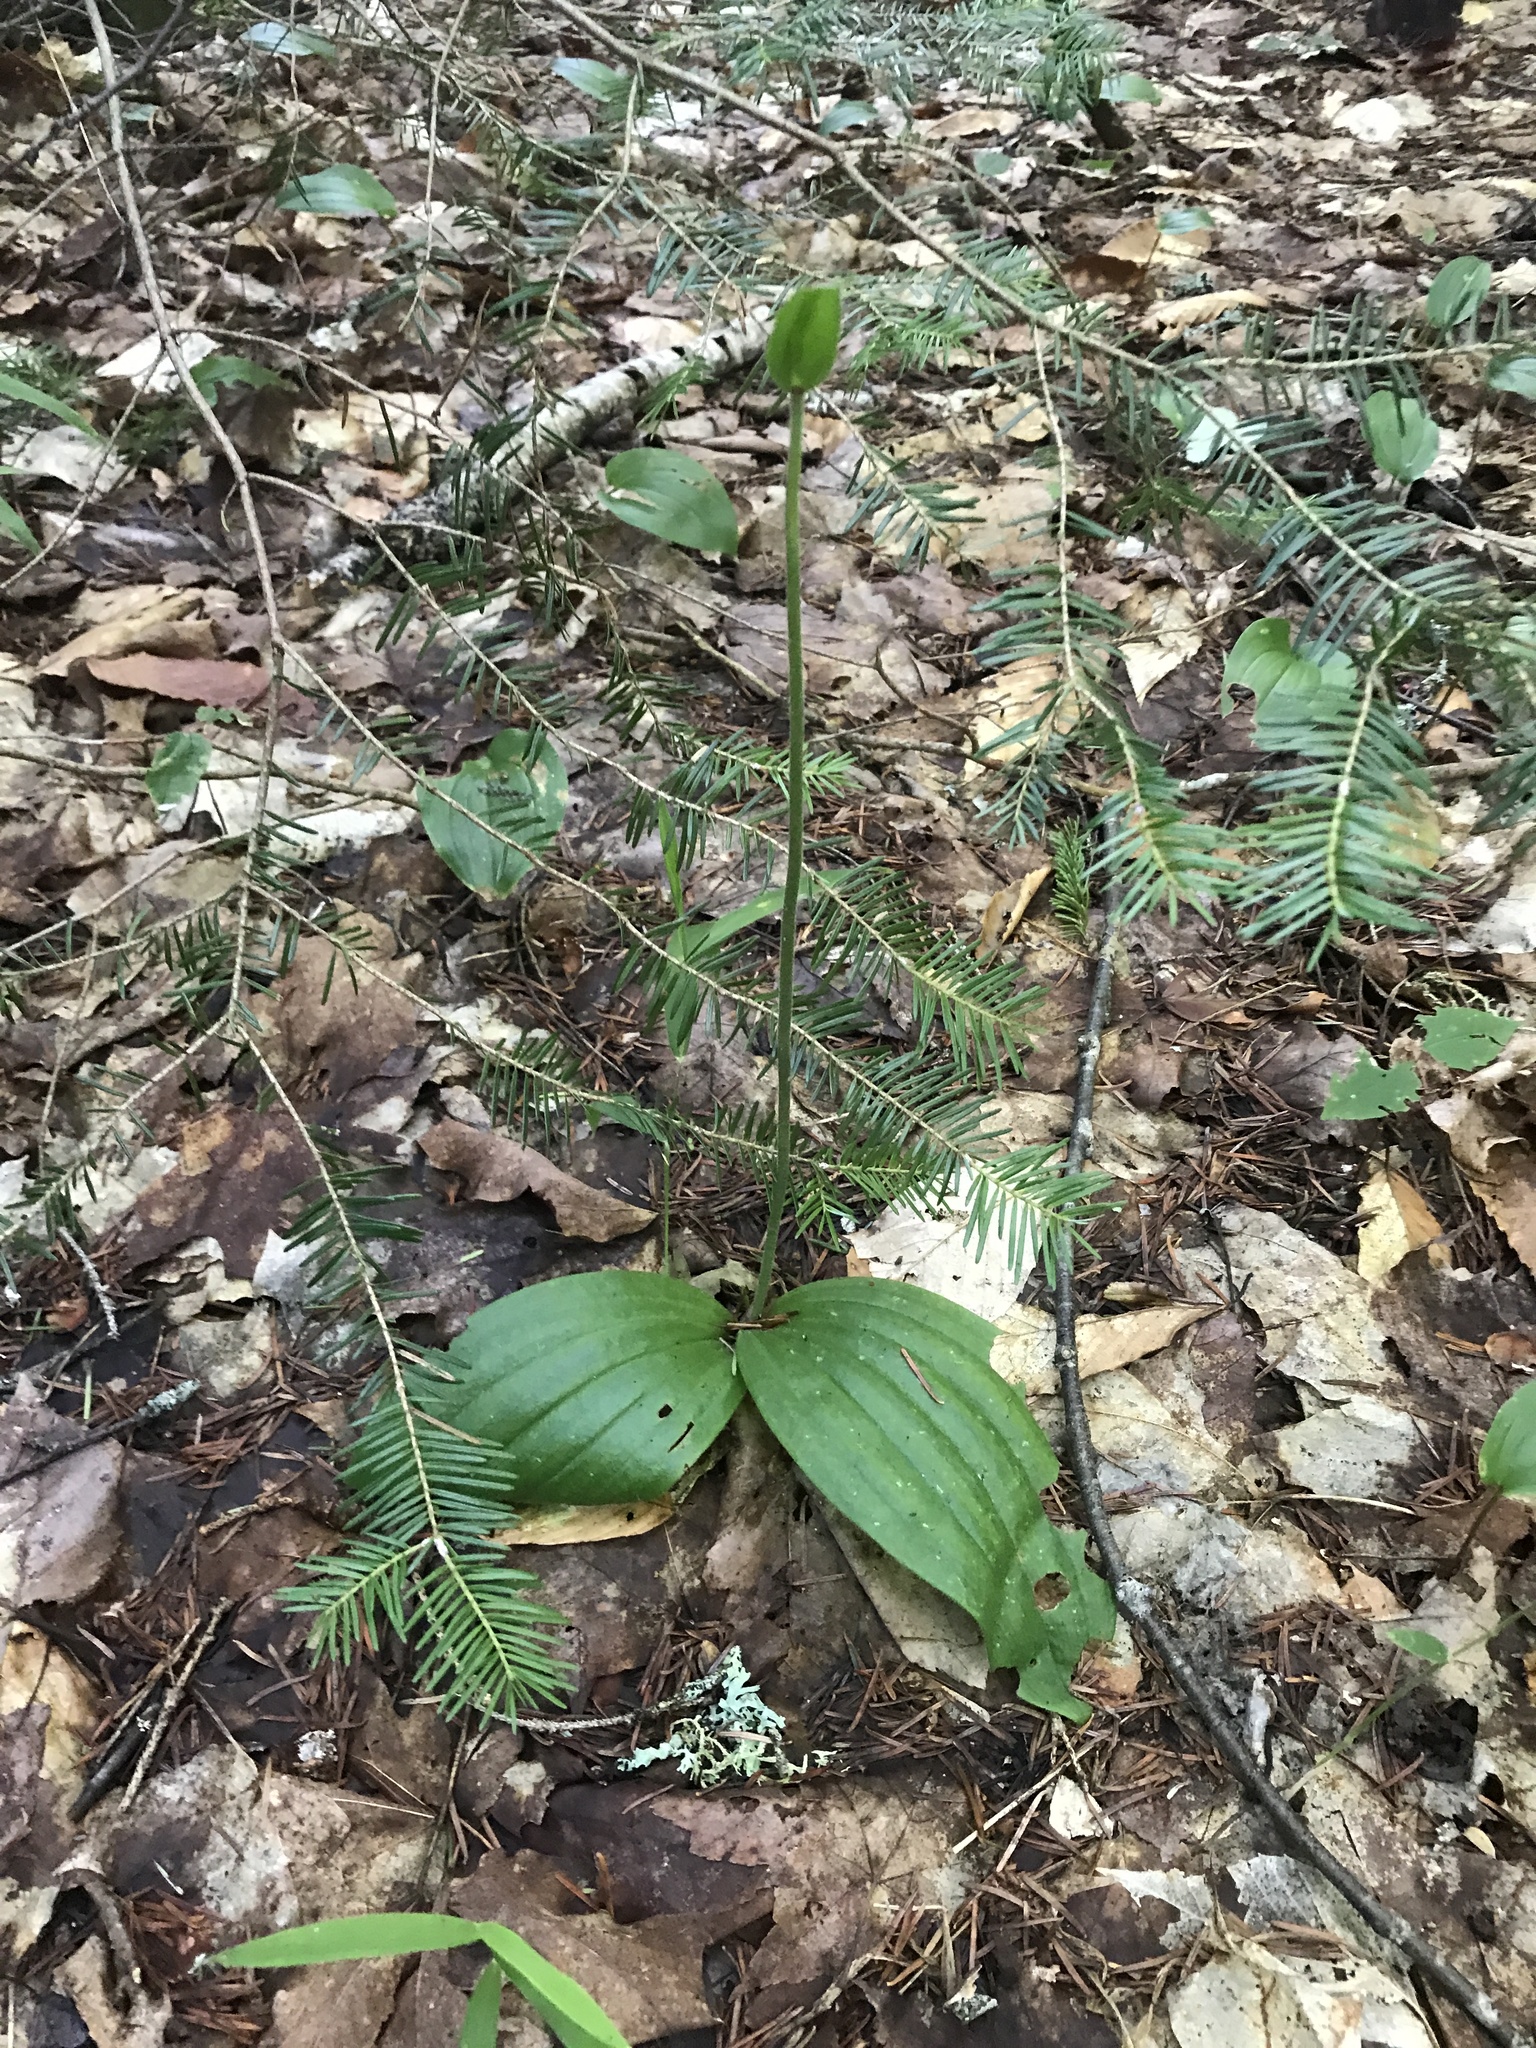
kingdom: Plantae
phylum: Tracheophyta
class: Liliopsida
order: Asparagales
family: Orchidaceae
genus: Cypripedium
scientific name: Cypripedium acaule
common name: Pink lady's-slipper
